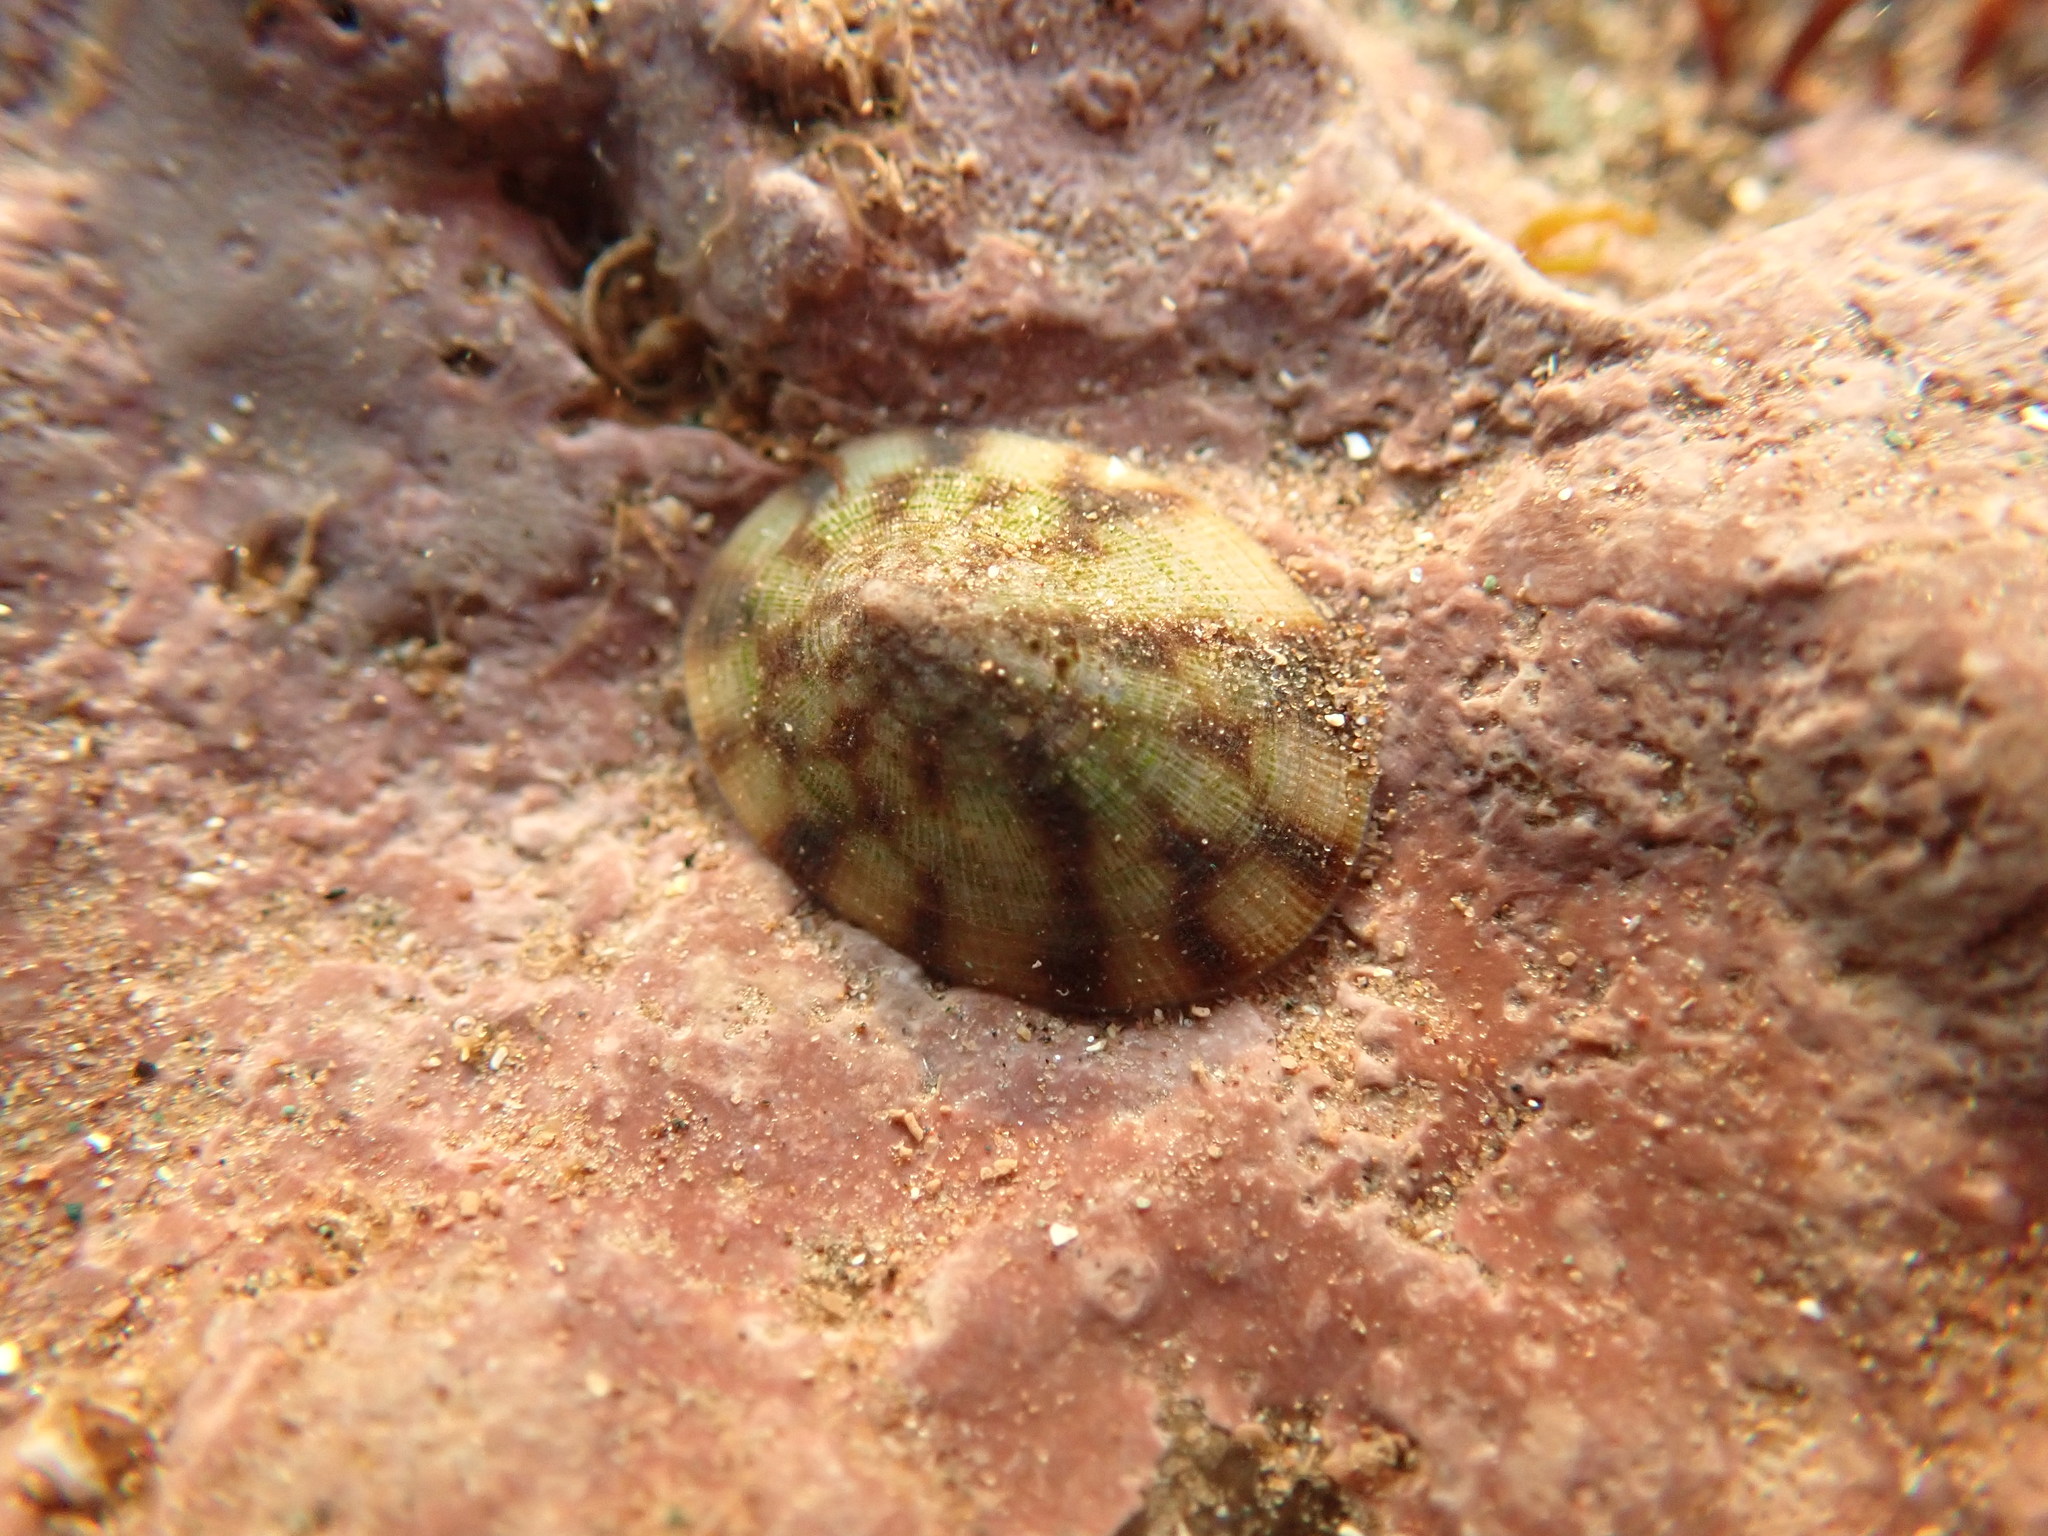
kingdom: Animalia
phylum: Mollusca
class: Gastropoda
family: Lottiidae
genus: Testudinalia
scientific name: Testudinalia testudinalis
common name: Common tortoiseshell limpet
